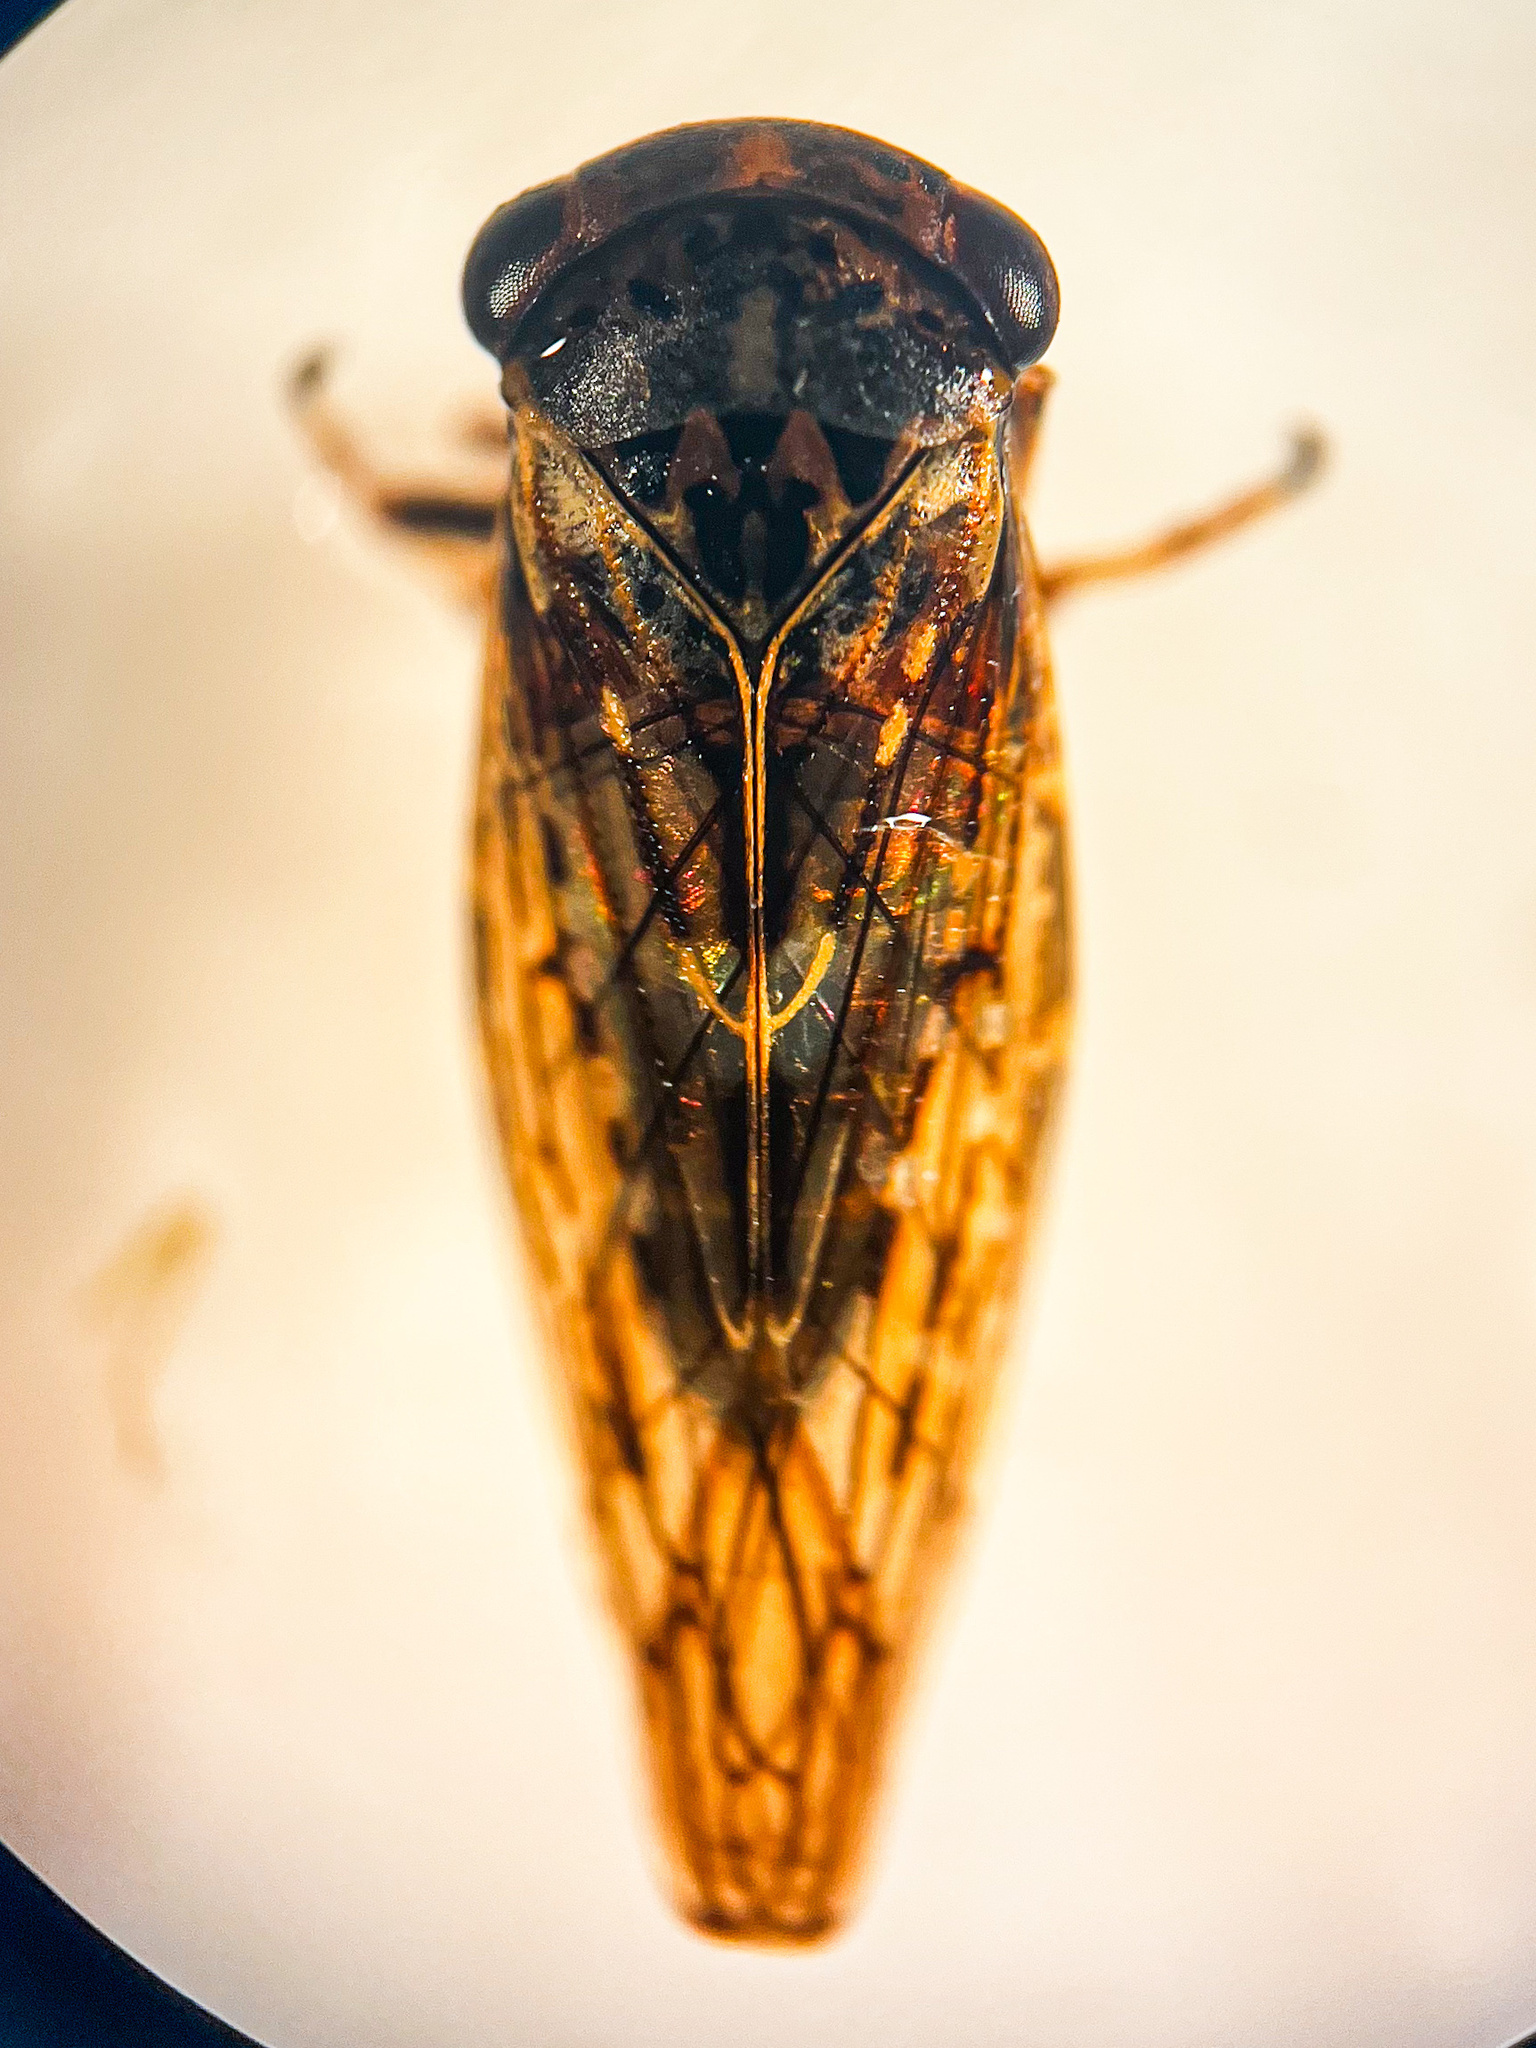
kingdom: Animalia
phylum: Arthropoda
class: Insecta
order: Hemiptera
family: Cicadellidae
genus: Idiocerus
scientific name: Idiocerus herrichii
